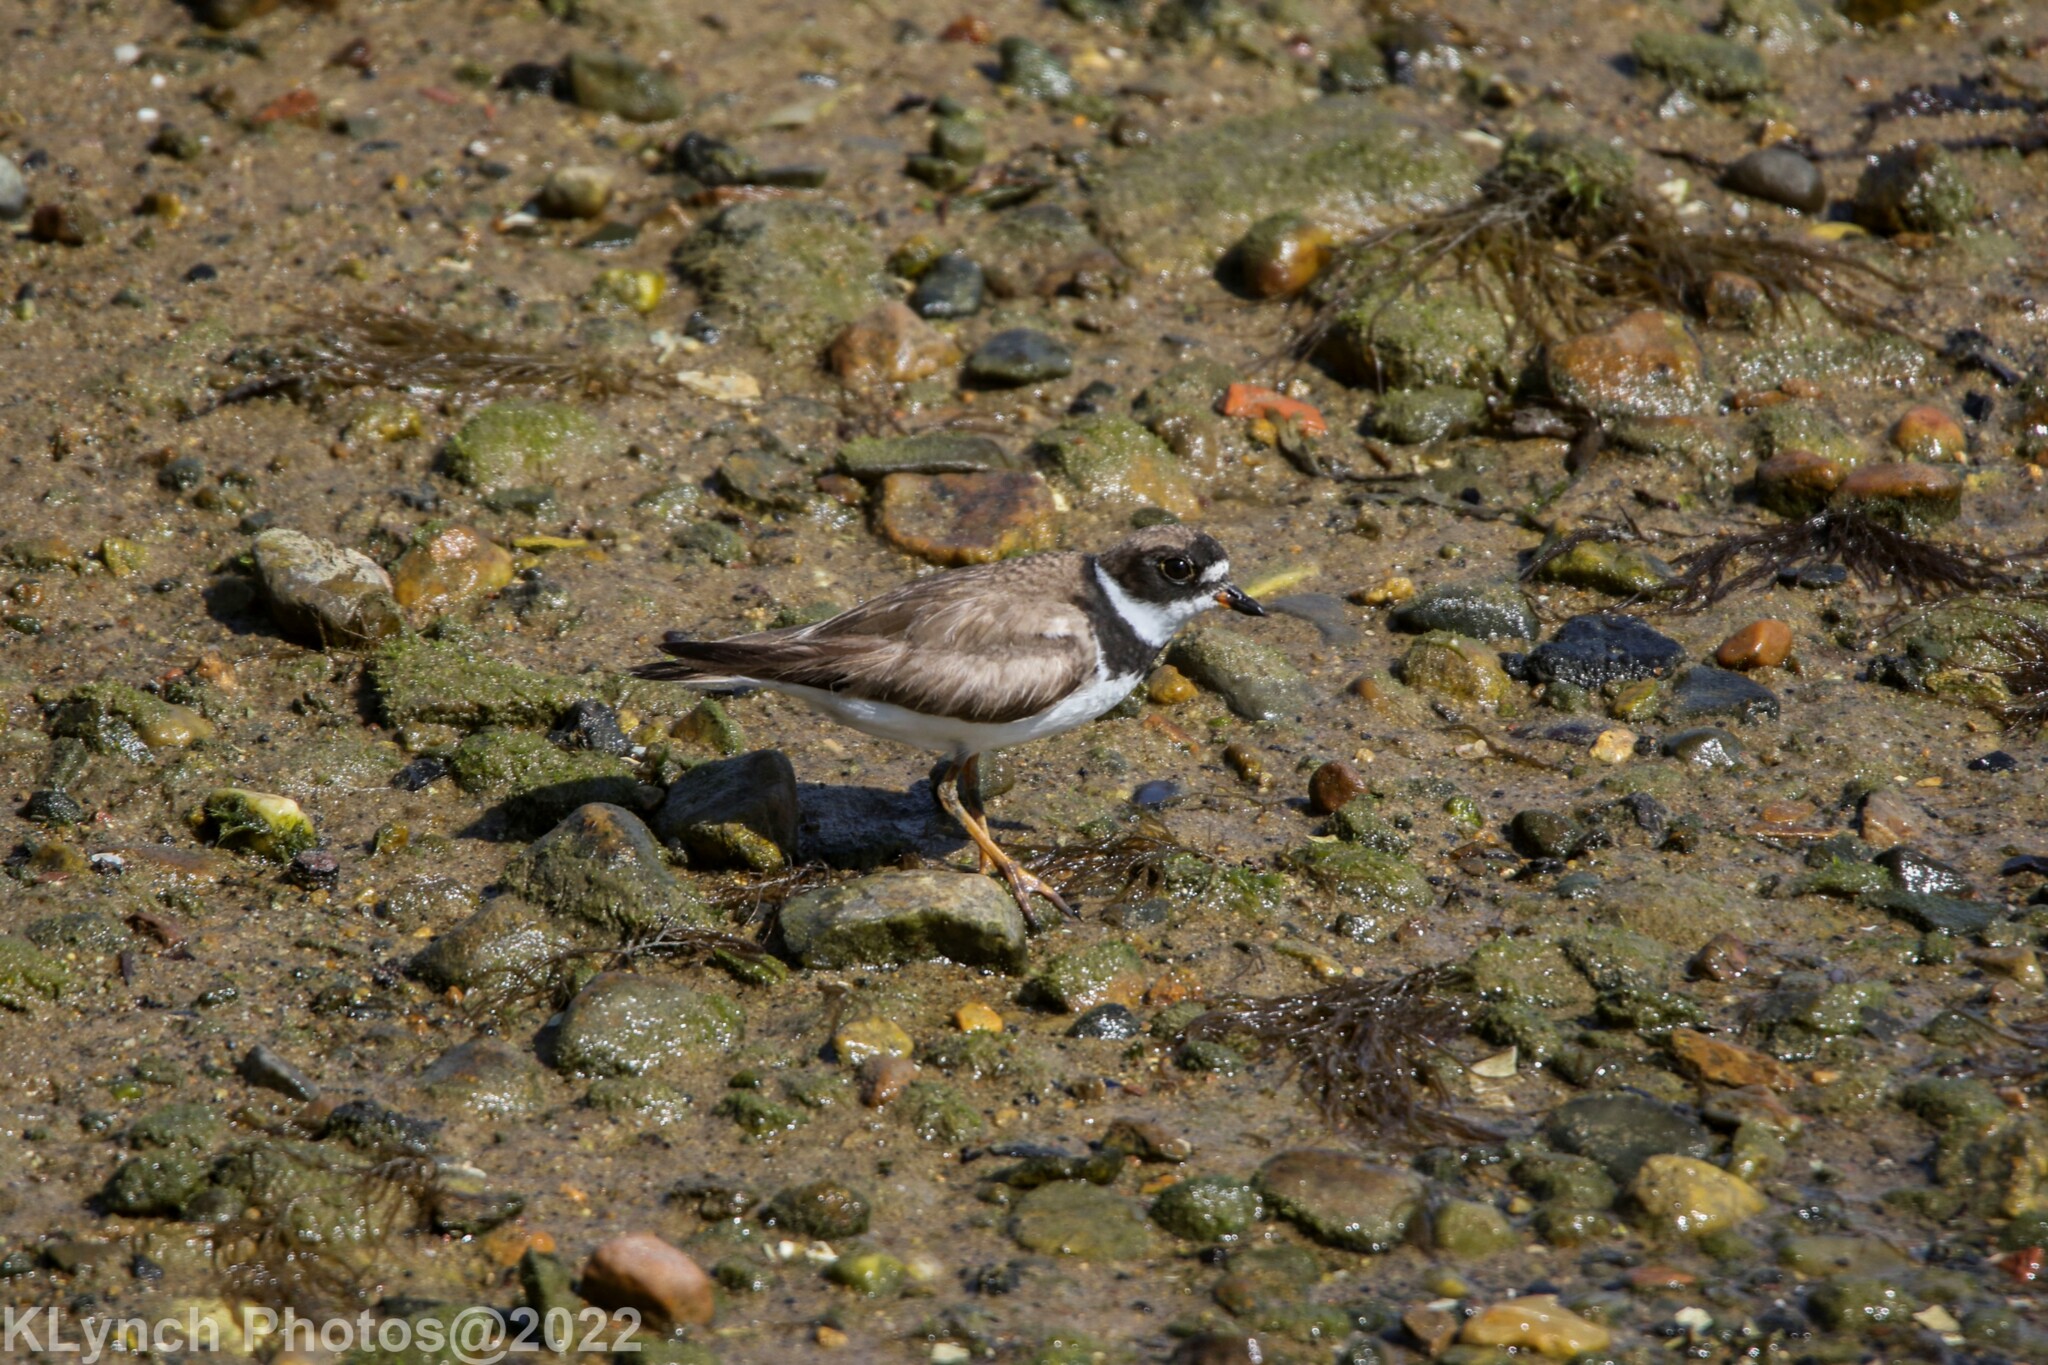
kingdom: Animalia
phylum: Chordata
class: Aves
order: Charadriiformes
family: Charadriidae
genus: Charadrius
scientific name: Charadrius semipalmatus
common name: Semipalmated plover
